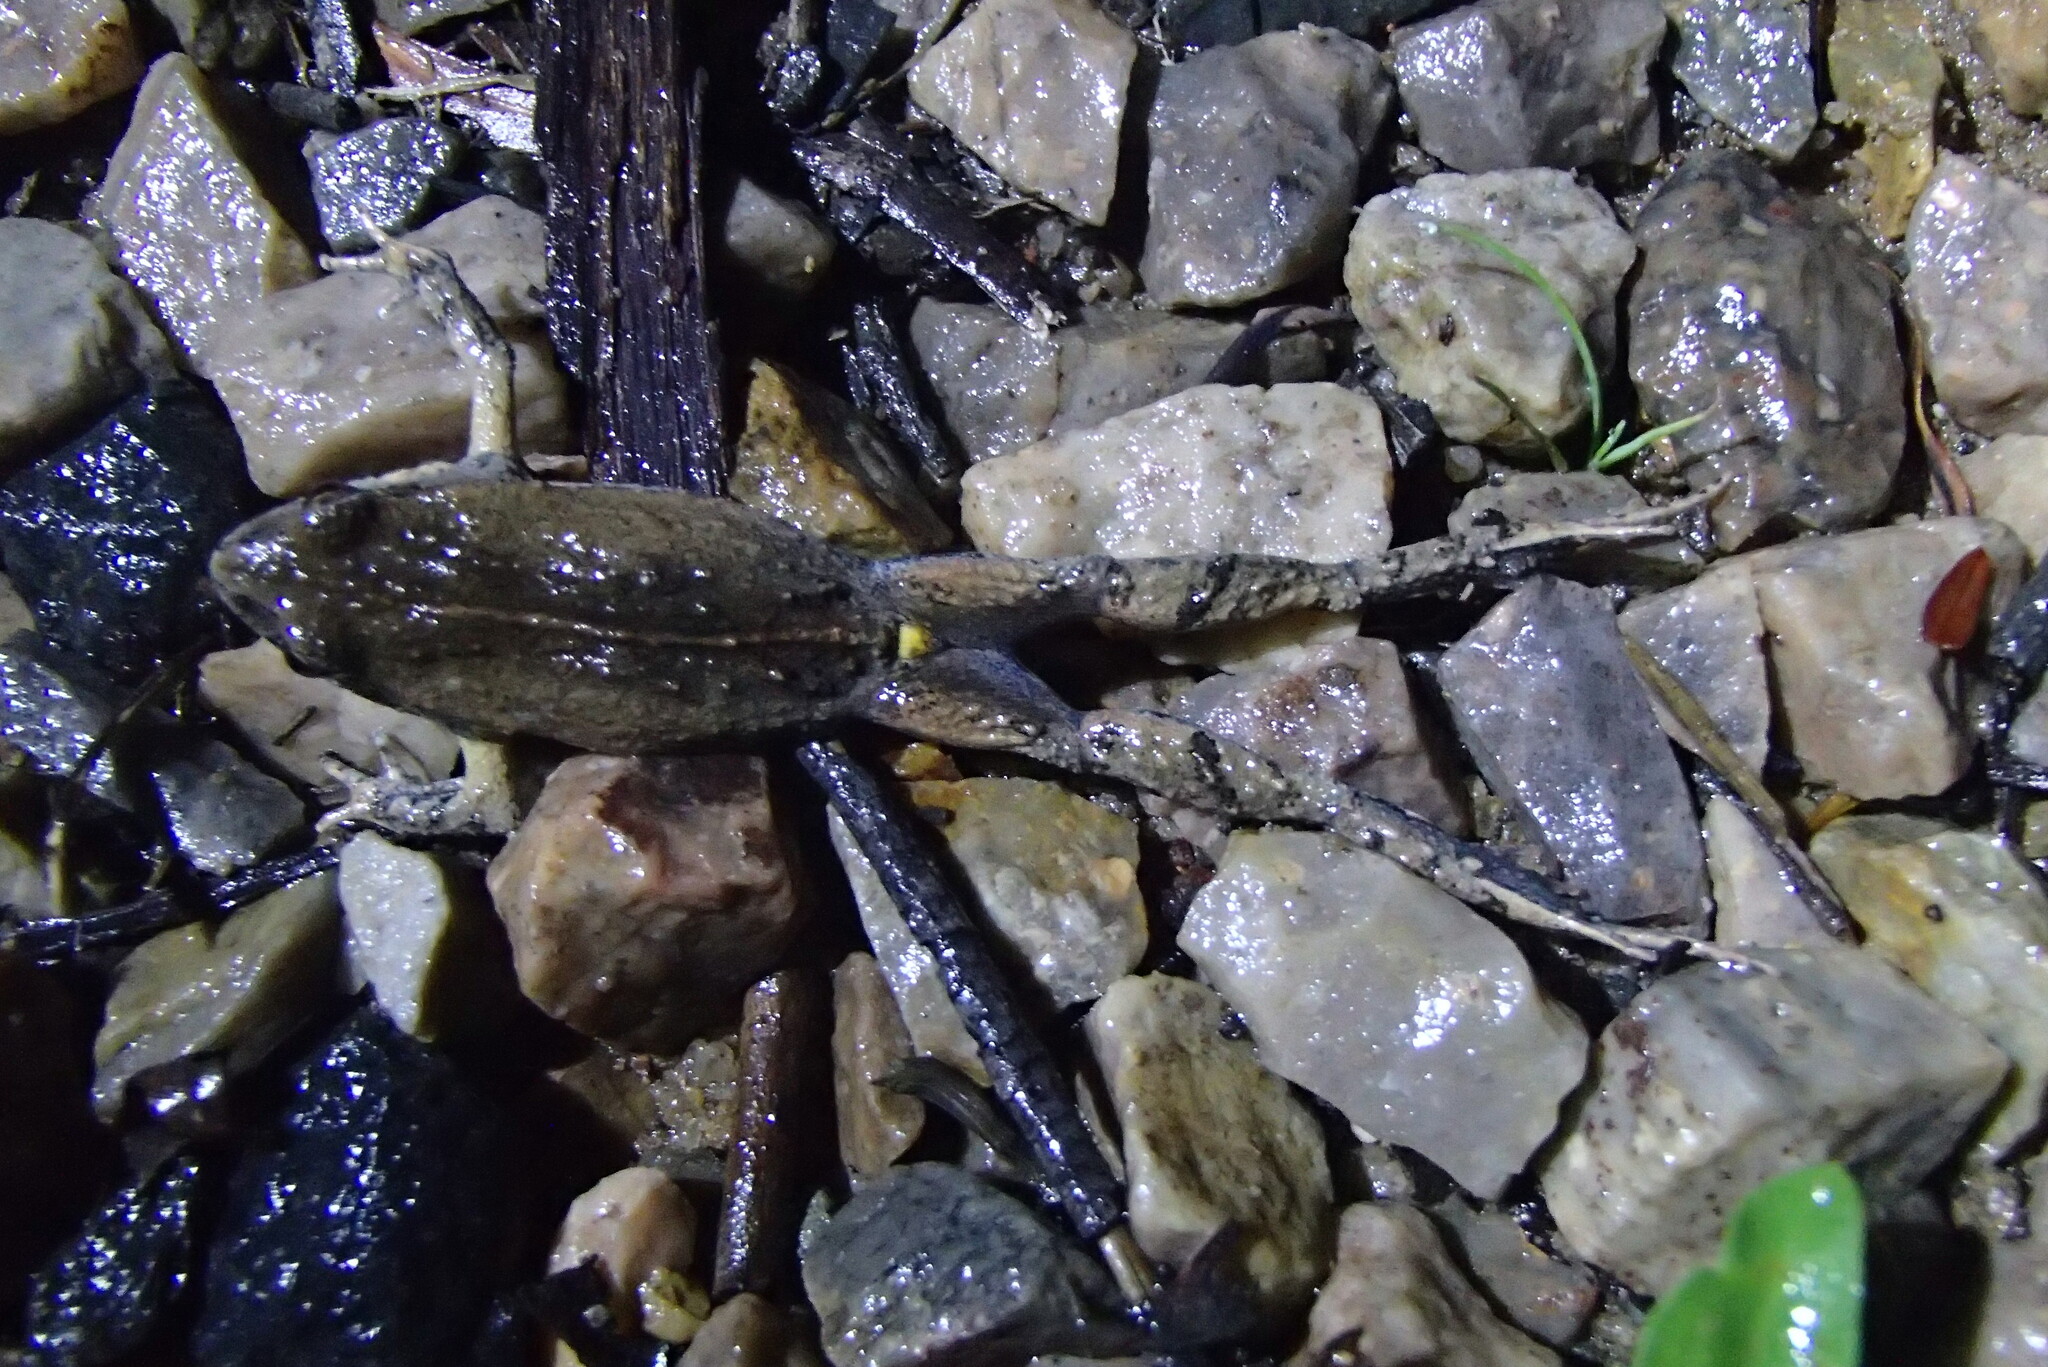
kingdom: Animalia
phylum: Chordata
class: Amphibia
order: Anura
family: Myobatrachidae
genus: Crinia
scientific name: Crinia signifera
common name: Brown froglet
